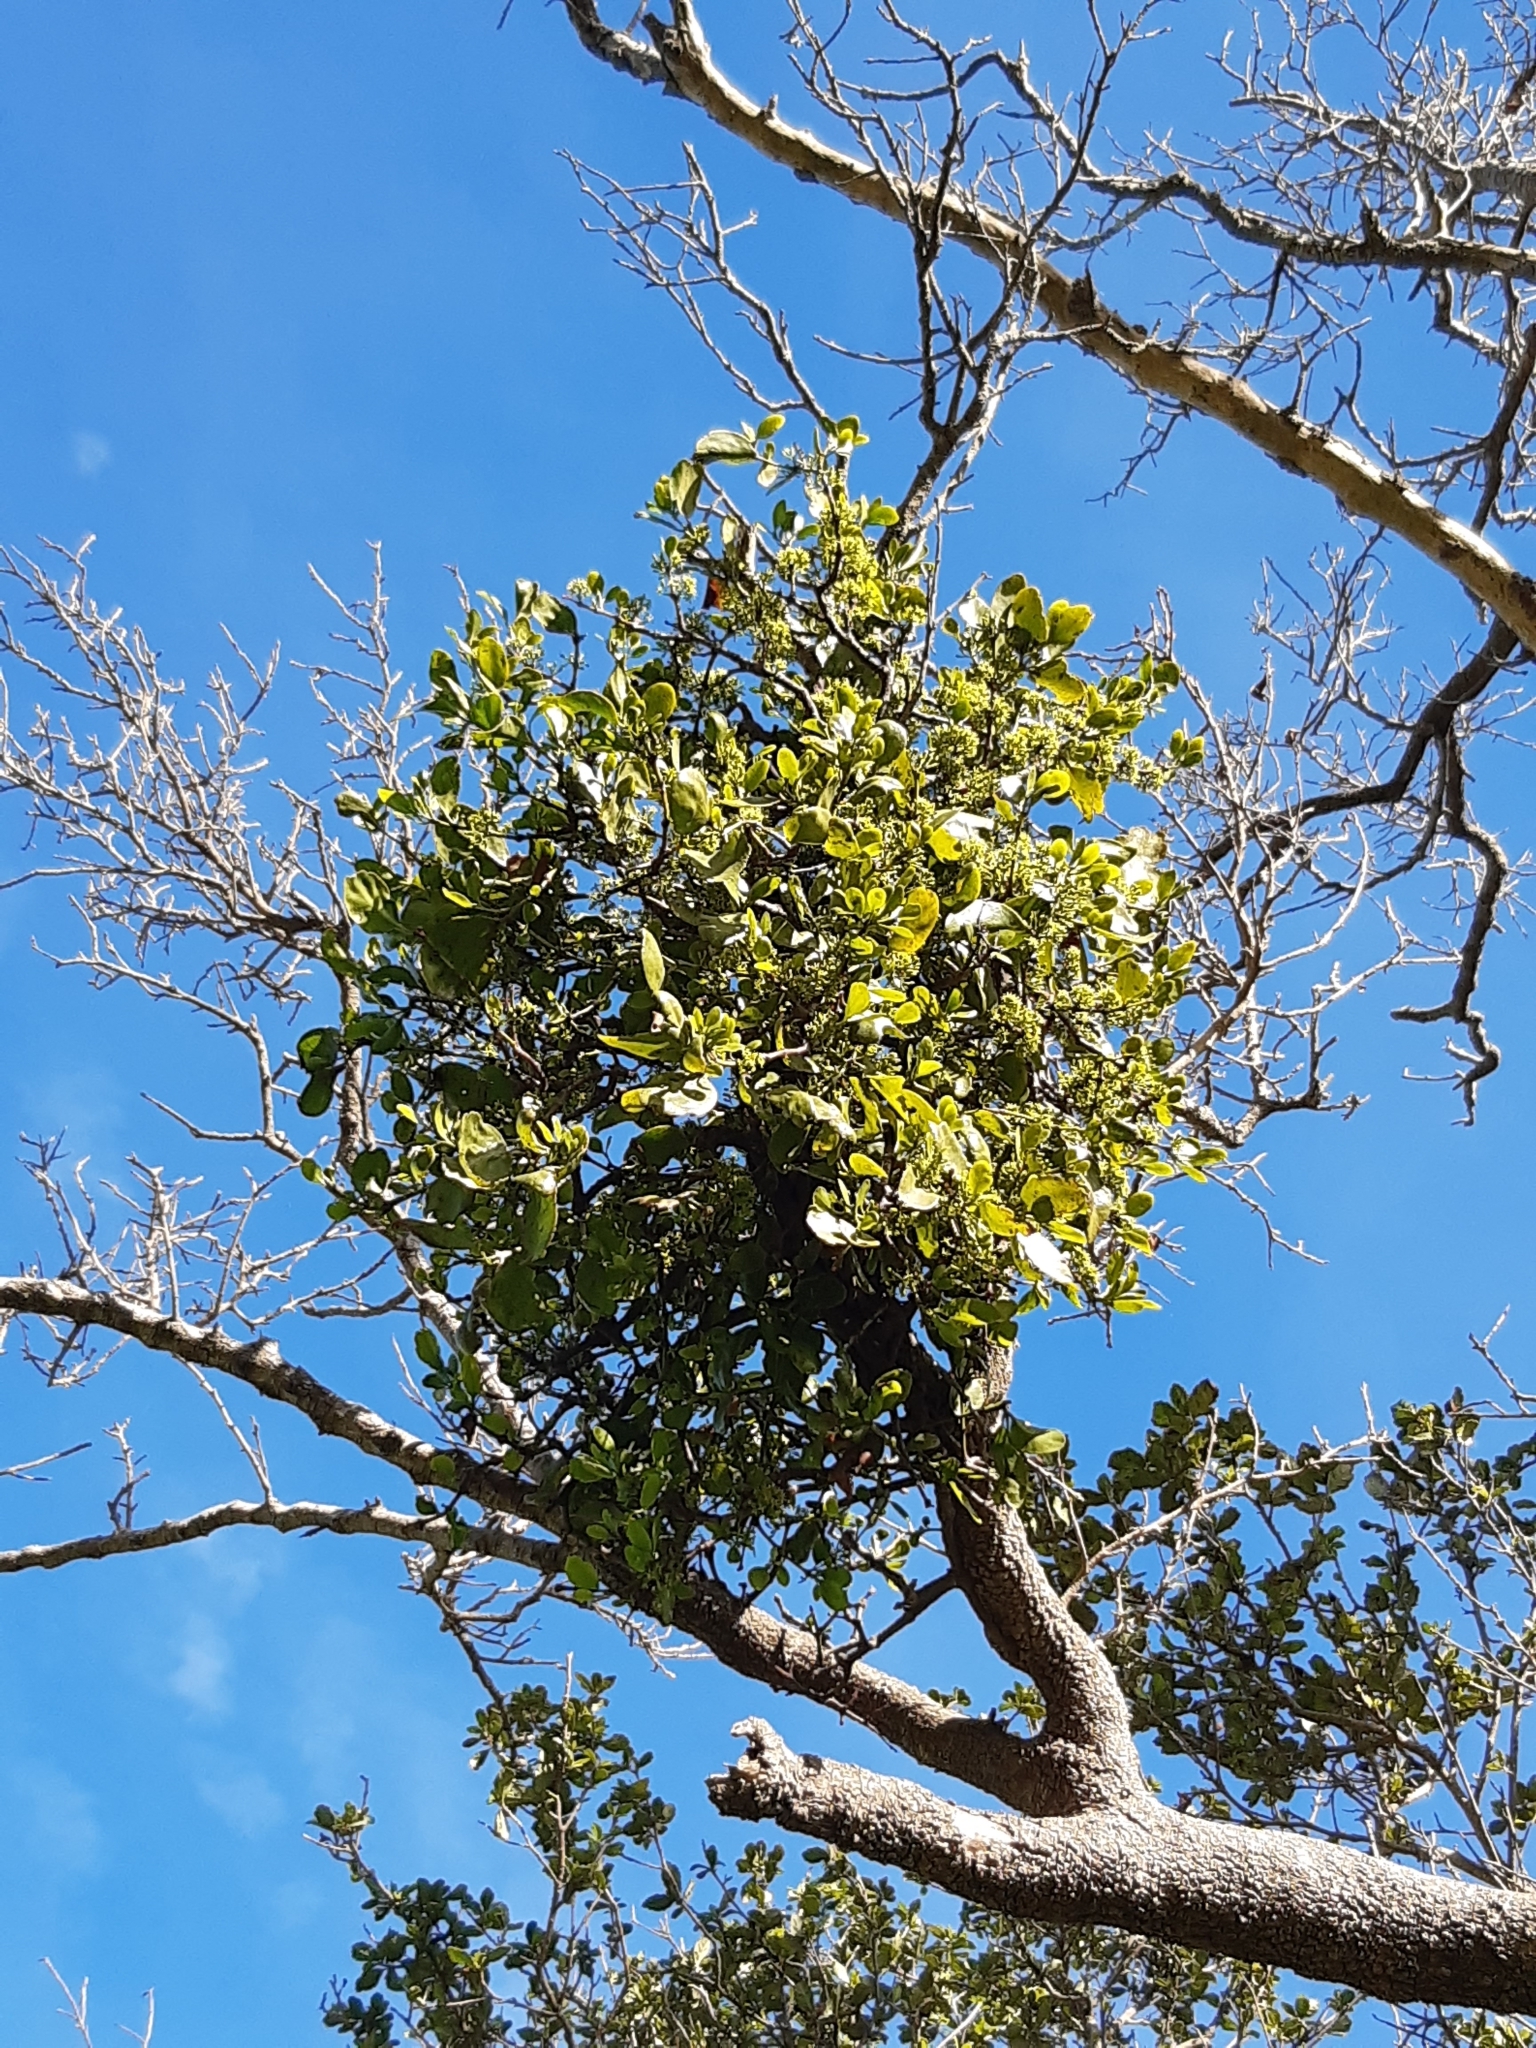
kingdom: Plantae
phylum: Tracheophyta
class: Magnoliopsida
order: Santalales
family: Loranthaceae
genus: Ileostylus
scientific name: Ileostylus micranthus
